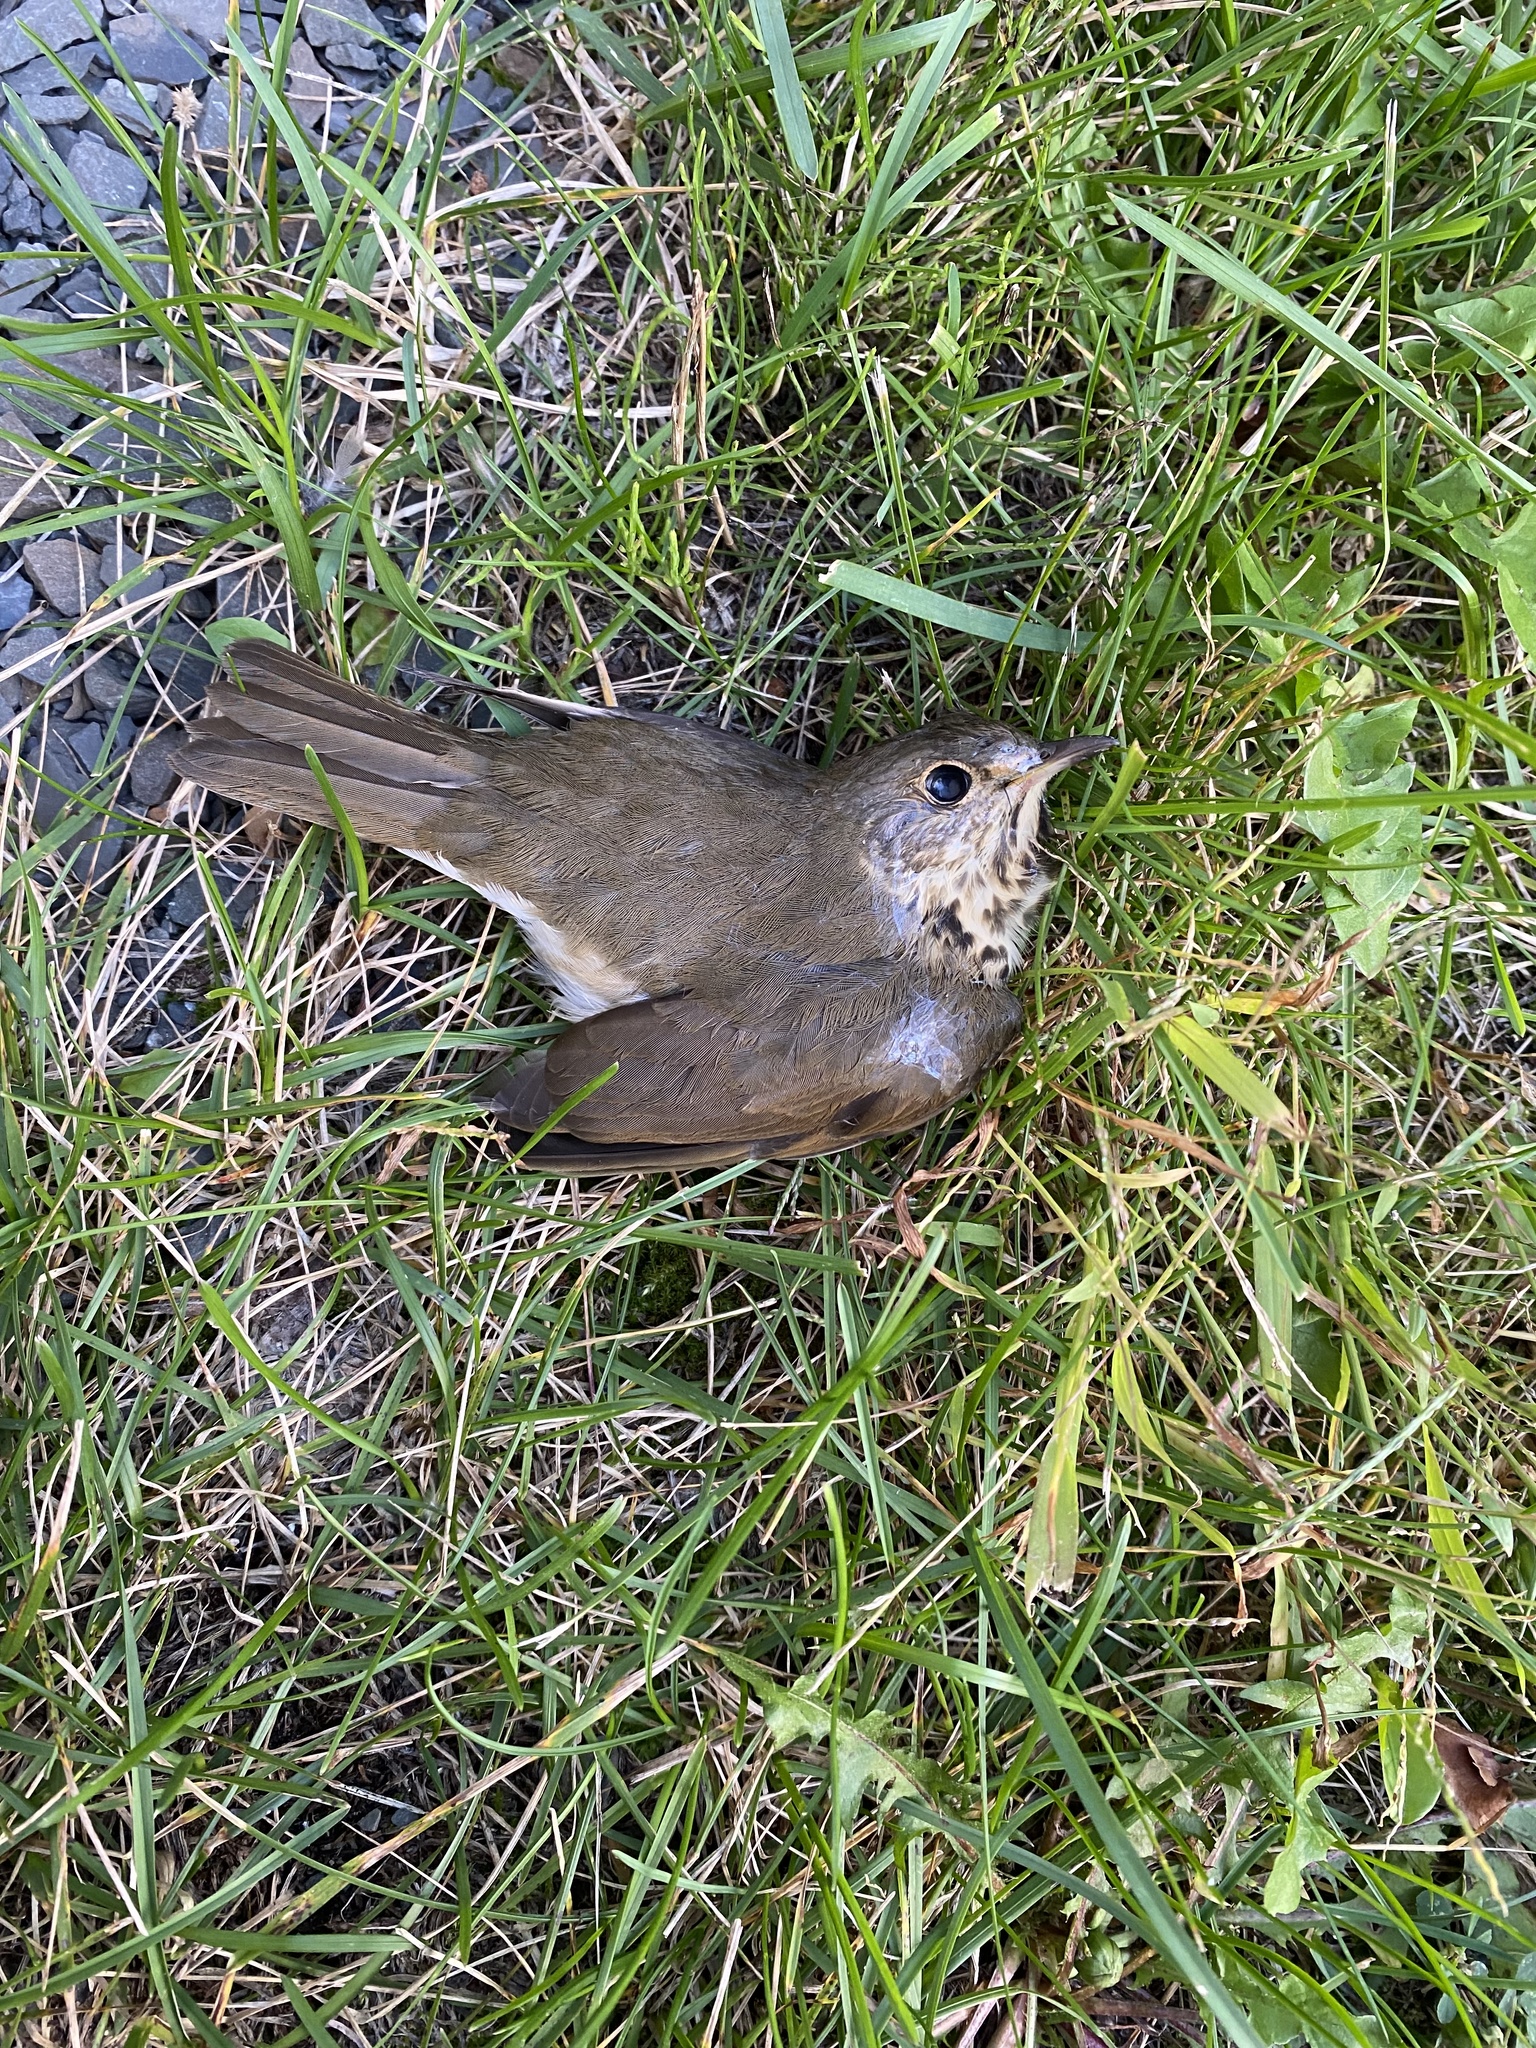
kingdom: Animalia
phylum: Chordata
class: Aves
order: Passeriformes
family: Turdidae
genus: Catharus
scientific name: Catharus ustulatus
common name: Swainson's thrush
